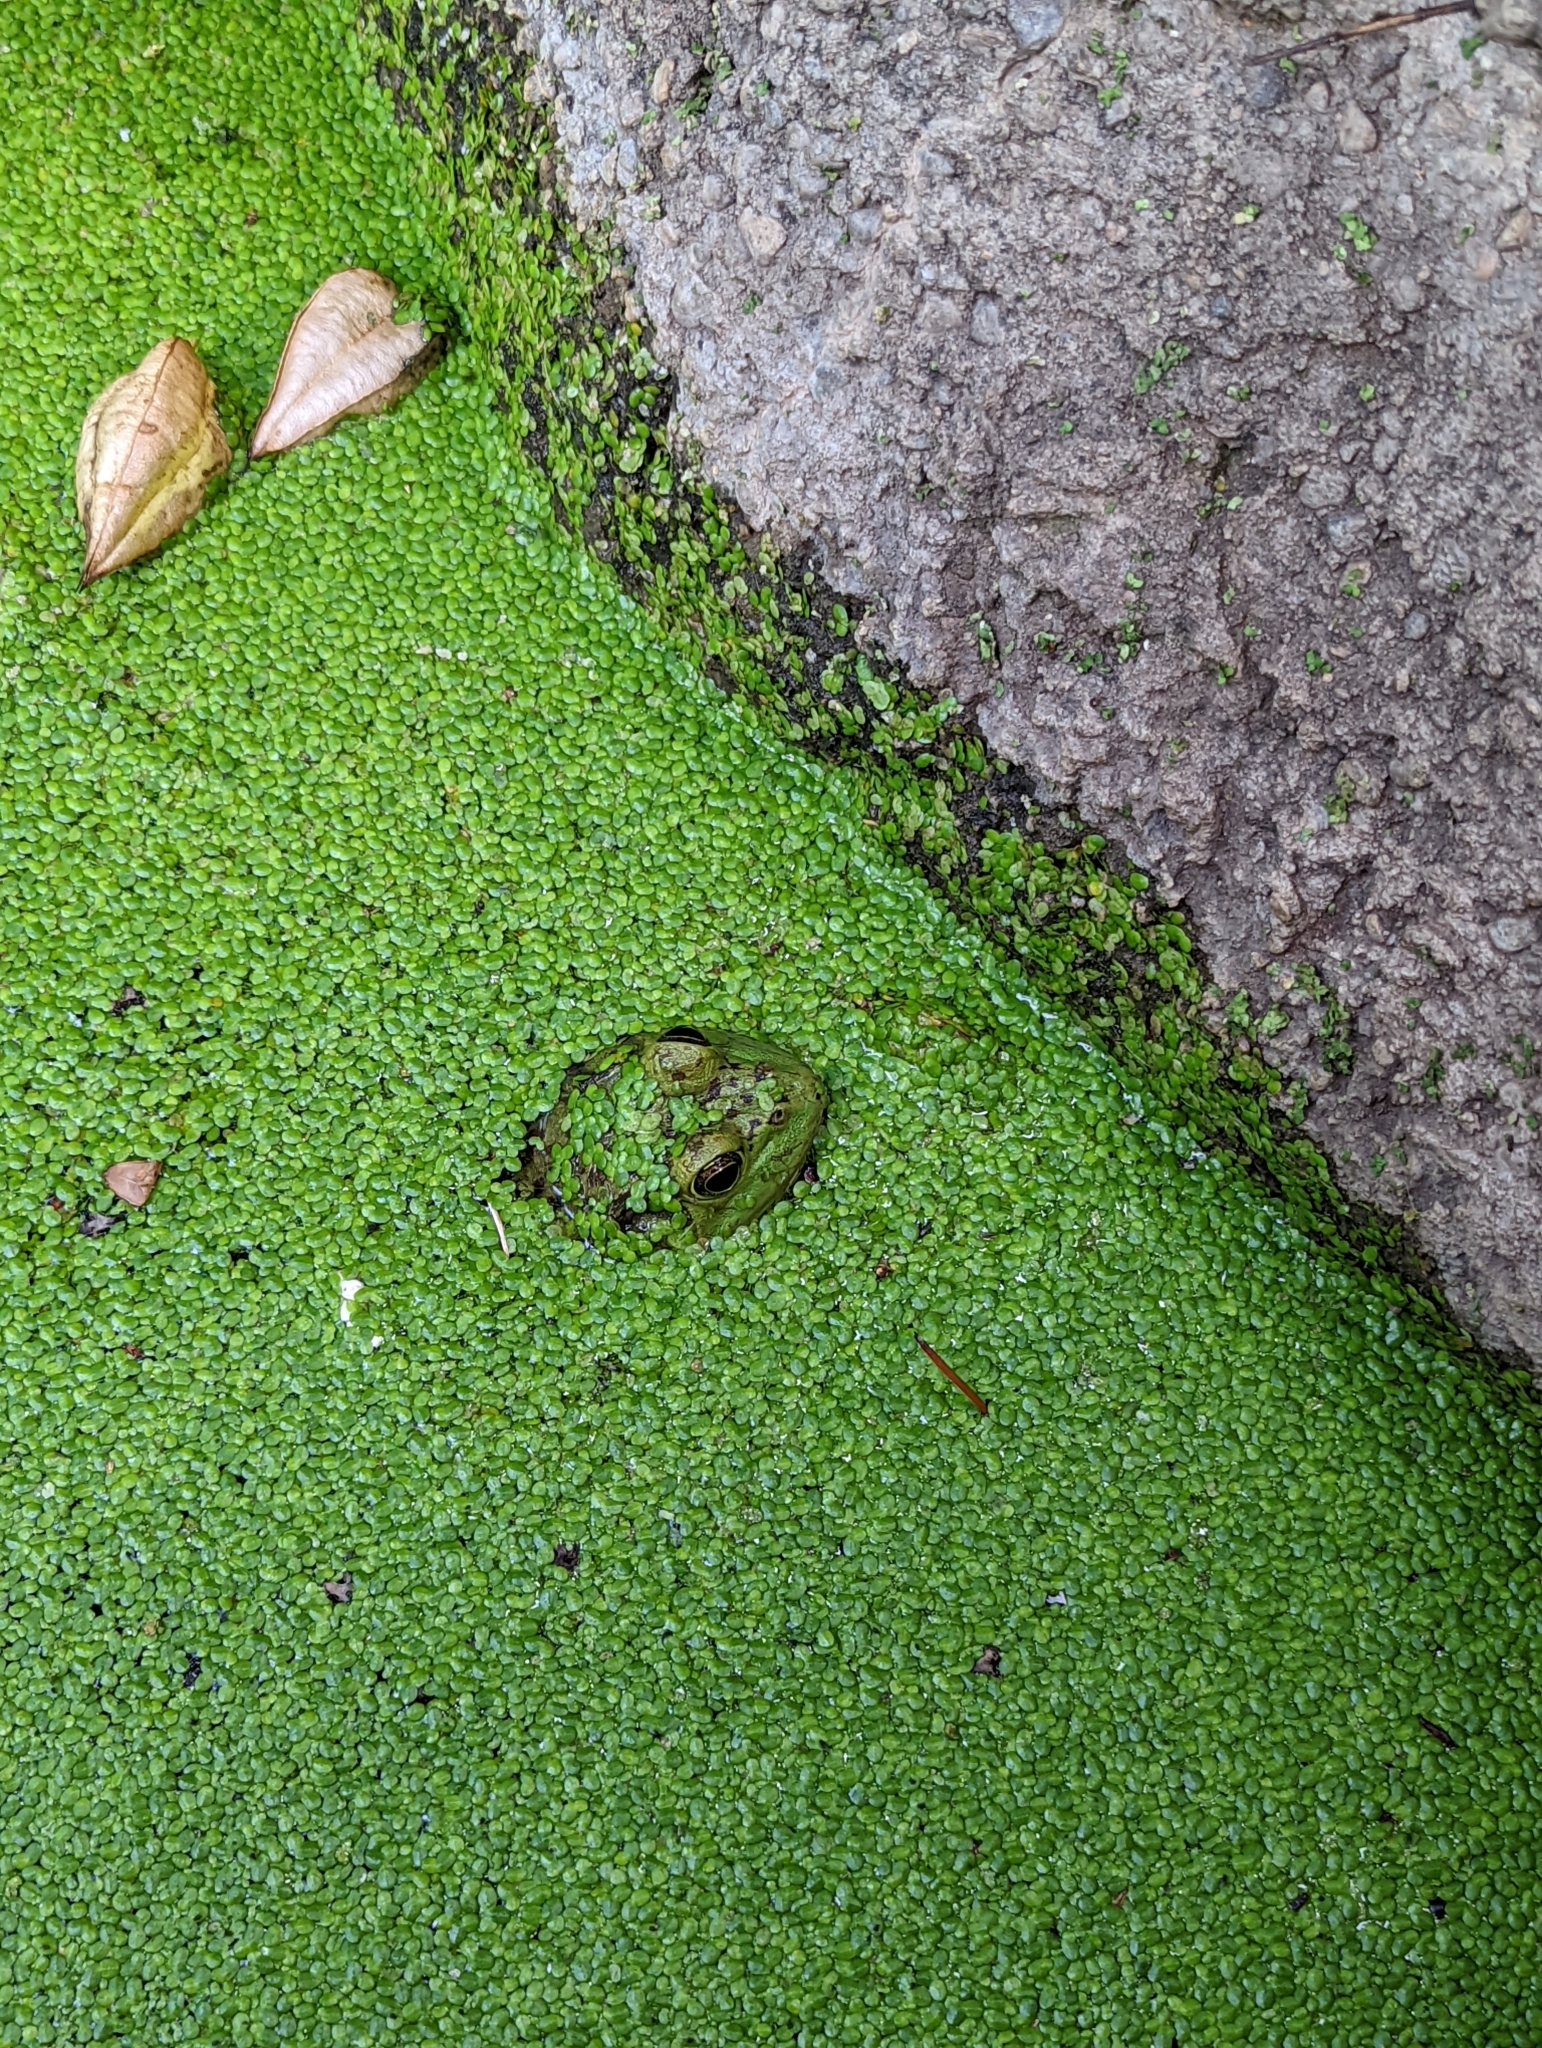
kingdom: Animalia
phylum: Chordata
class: Amphibia
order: Anura
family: Ranidae
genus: Lithobates
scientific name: Lithobates catesbeianus
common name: American bullfrog
